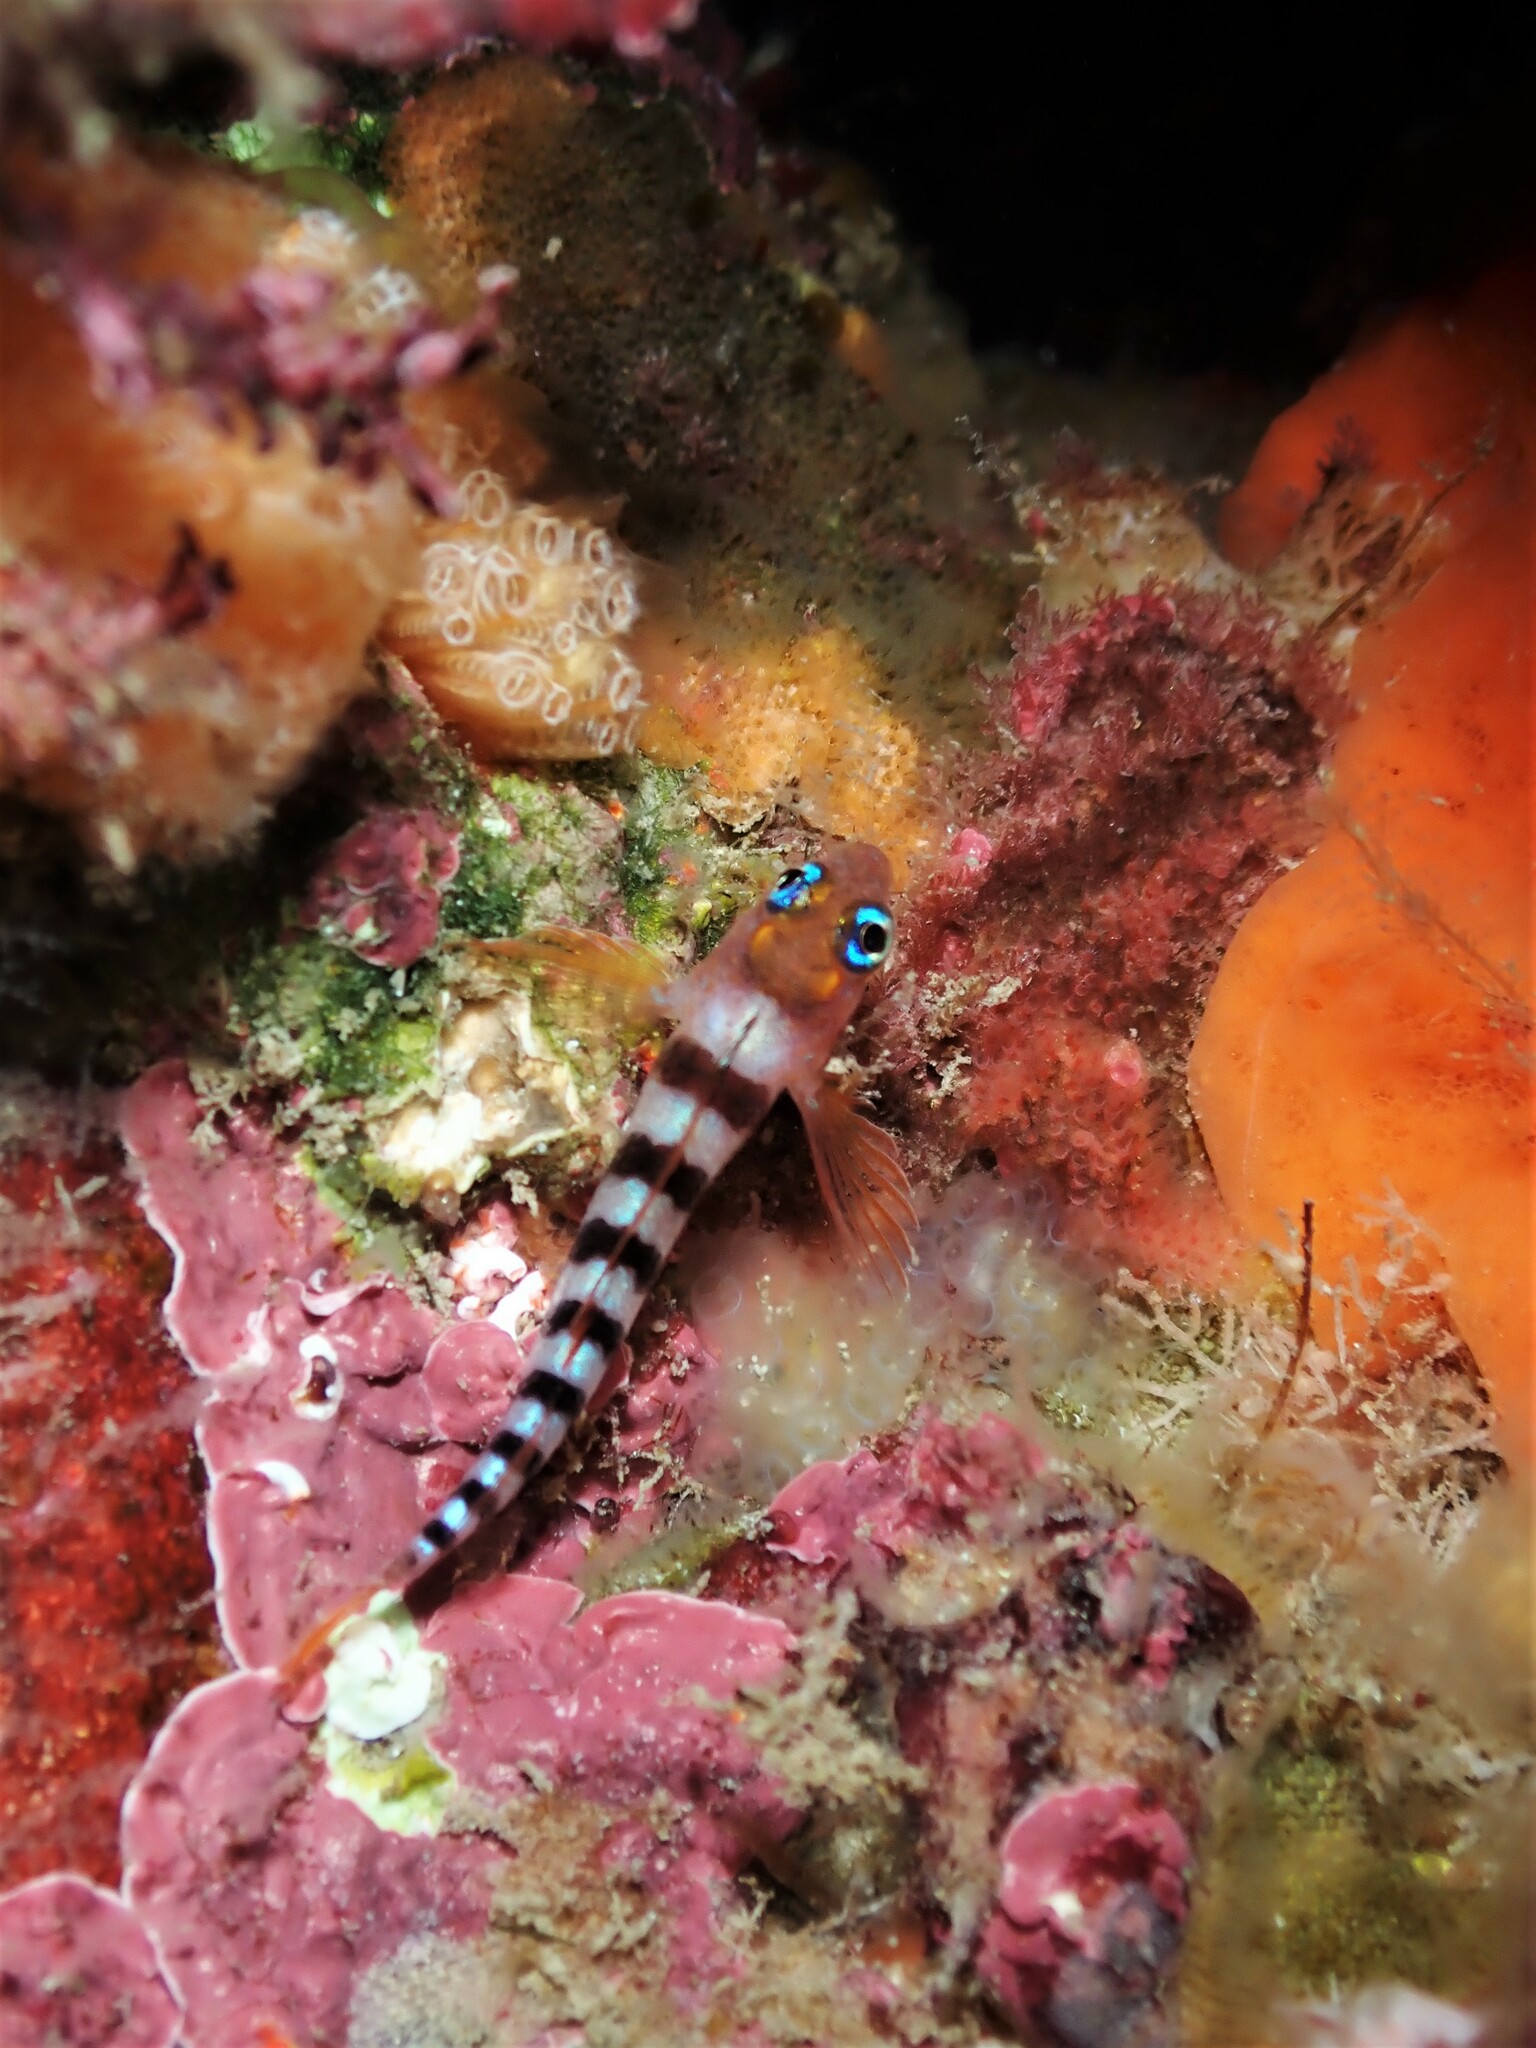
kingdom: Animalia
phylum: Chordata
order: Perciformes
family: Tripterygiidae
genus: Notoclinops
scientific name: Notoclinops segmentatus
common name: Blue-eyed triplefin
